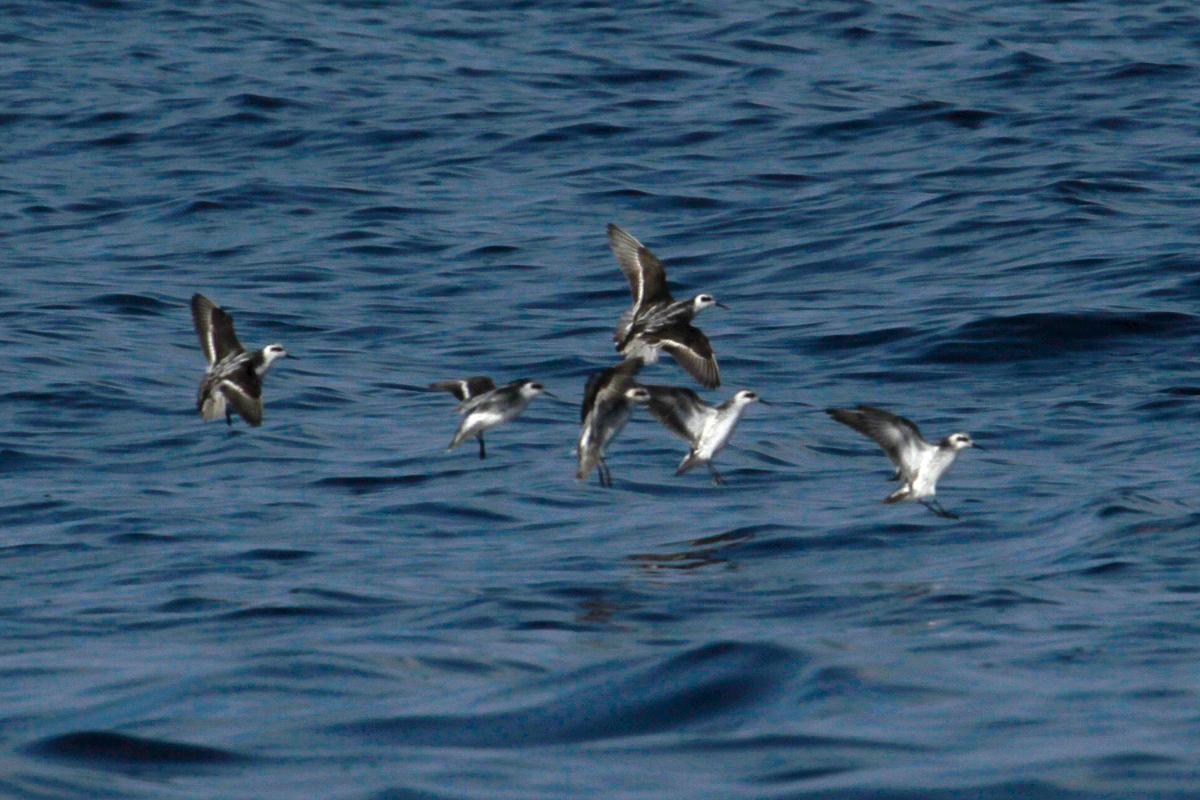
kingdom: Animalia
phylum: Chordata
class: Aves
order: Charadriiformes
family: Scolopacidae
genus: Phalaropus
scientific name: Phalaropus lobatus
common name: Red-necked phalarope
